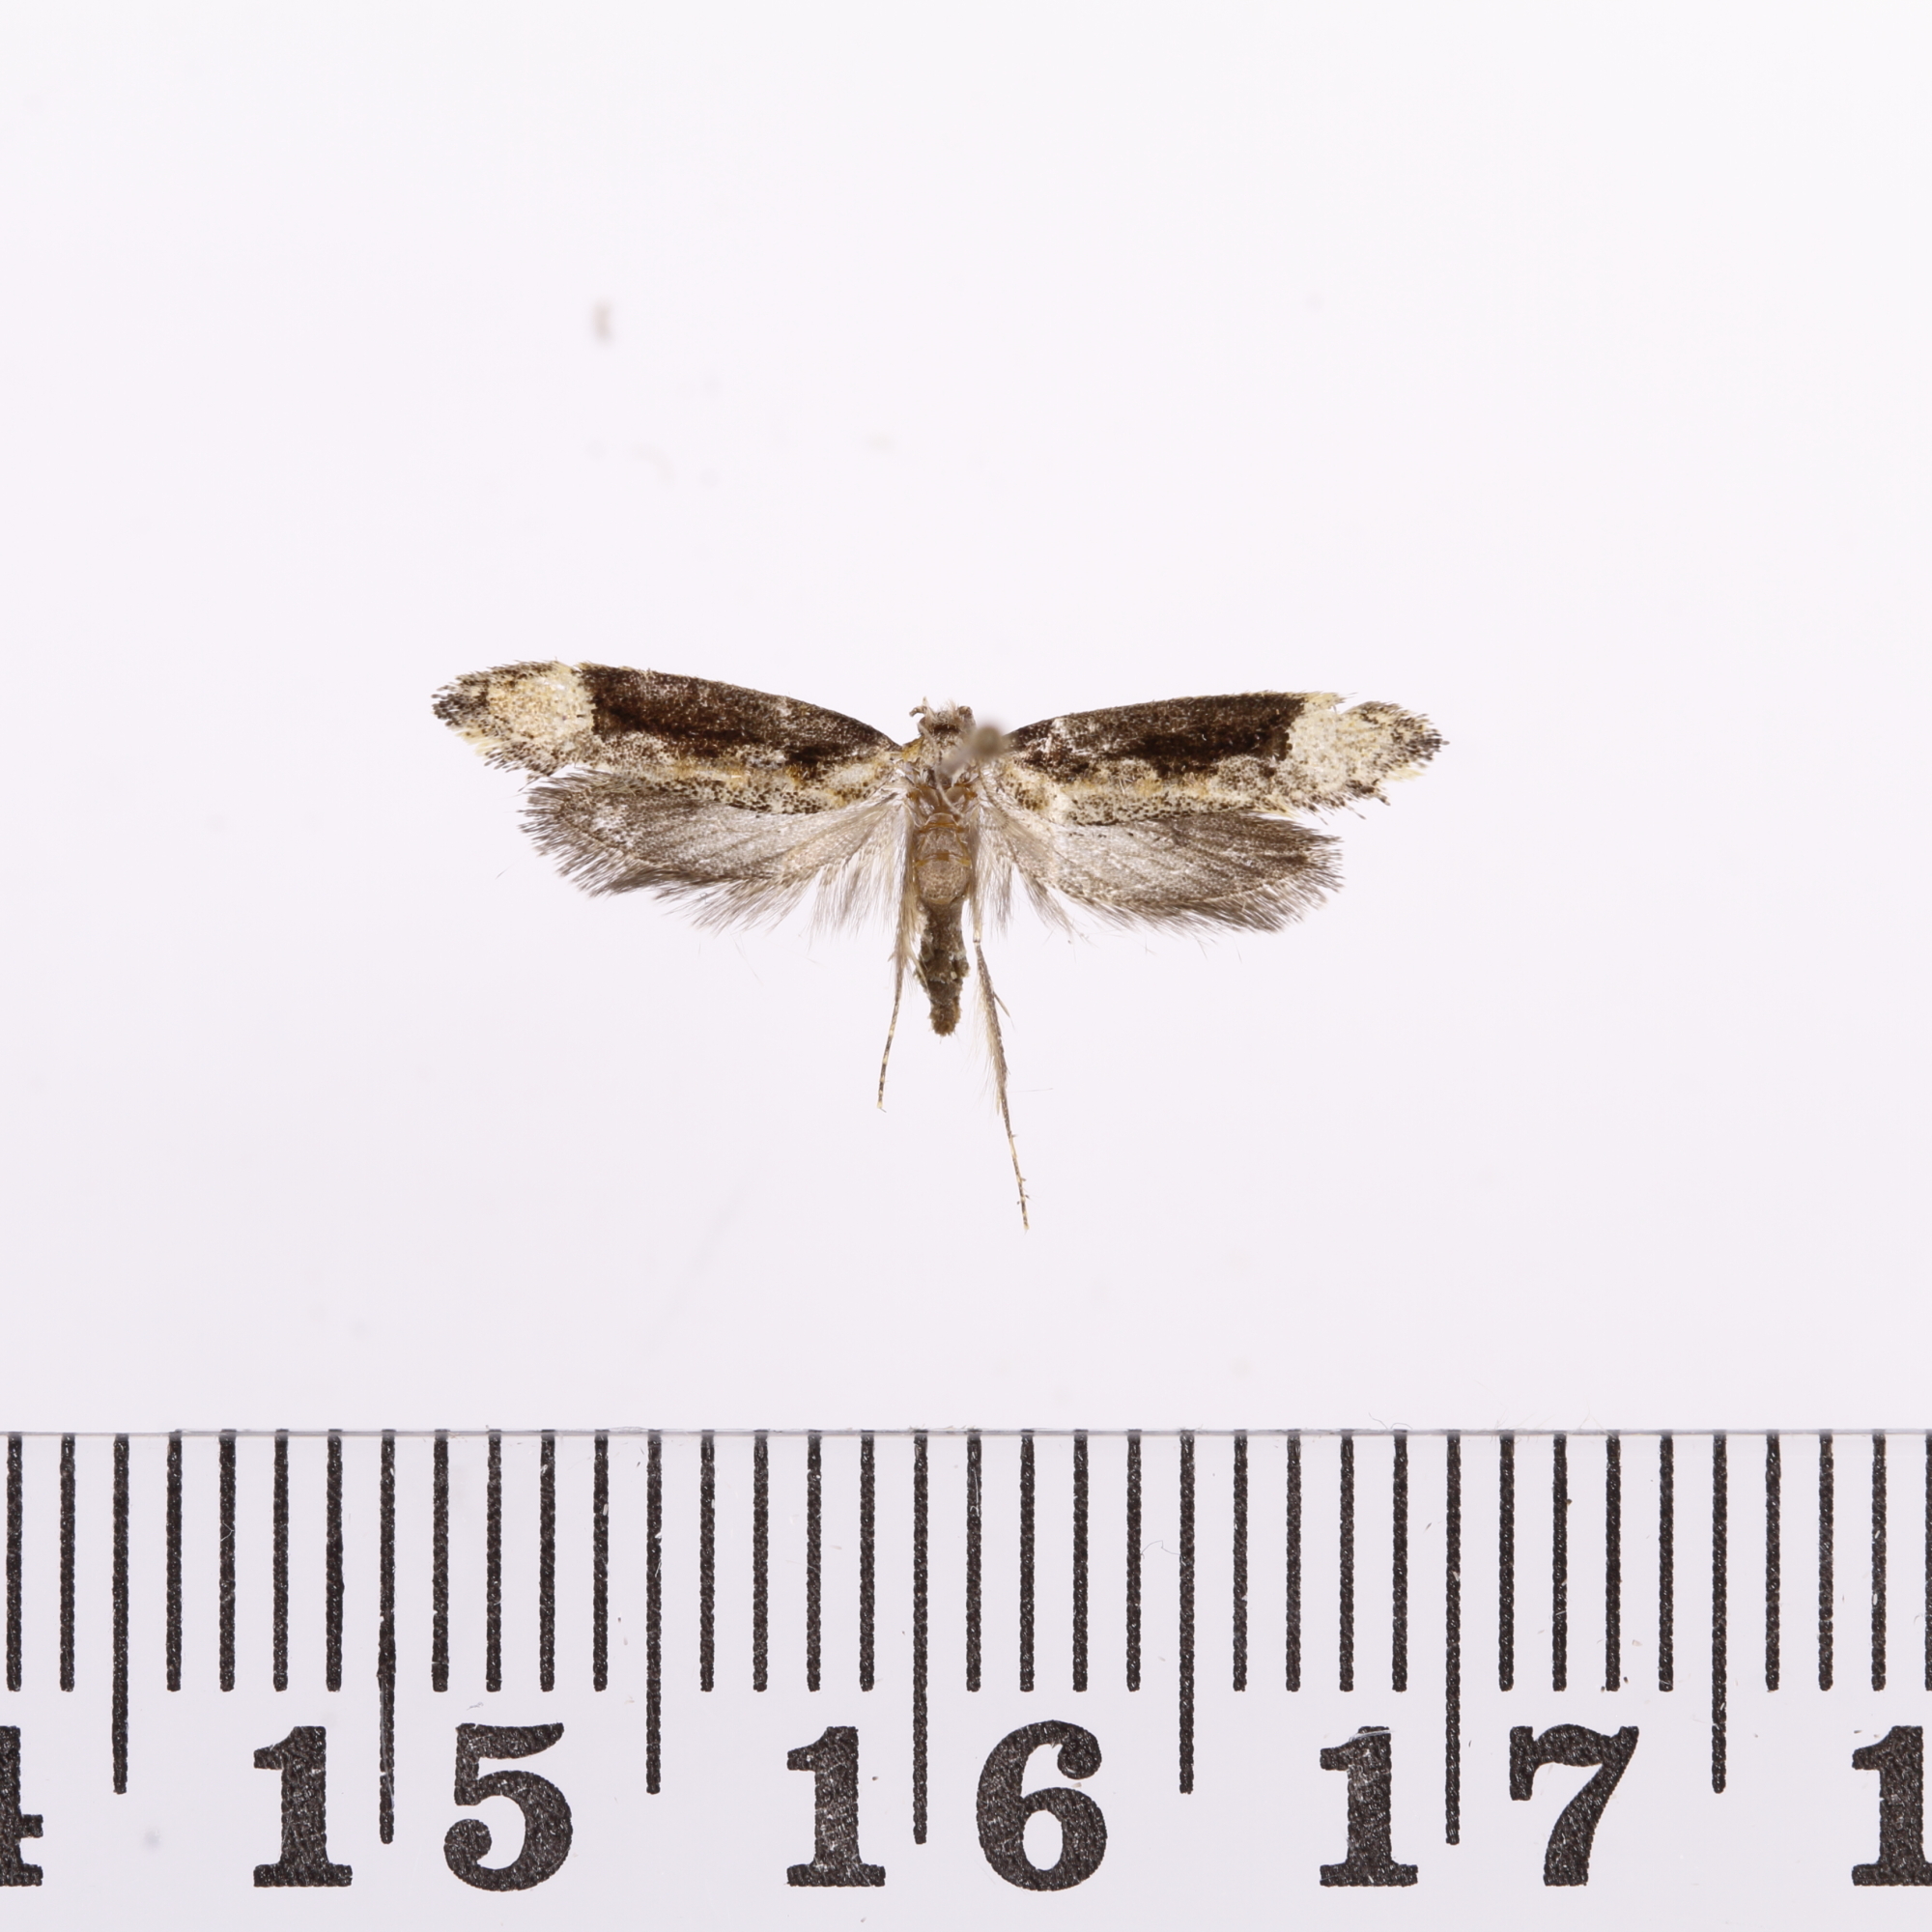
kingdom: Animalia
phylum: Arthropoda
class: Insecta
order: Lepidoptera
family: Tineidae
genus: Trithamnora
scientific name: Trithamnora certella
